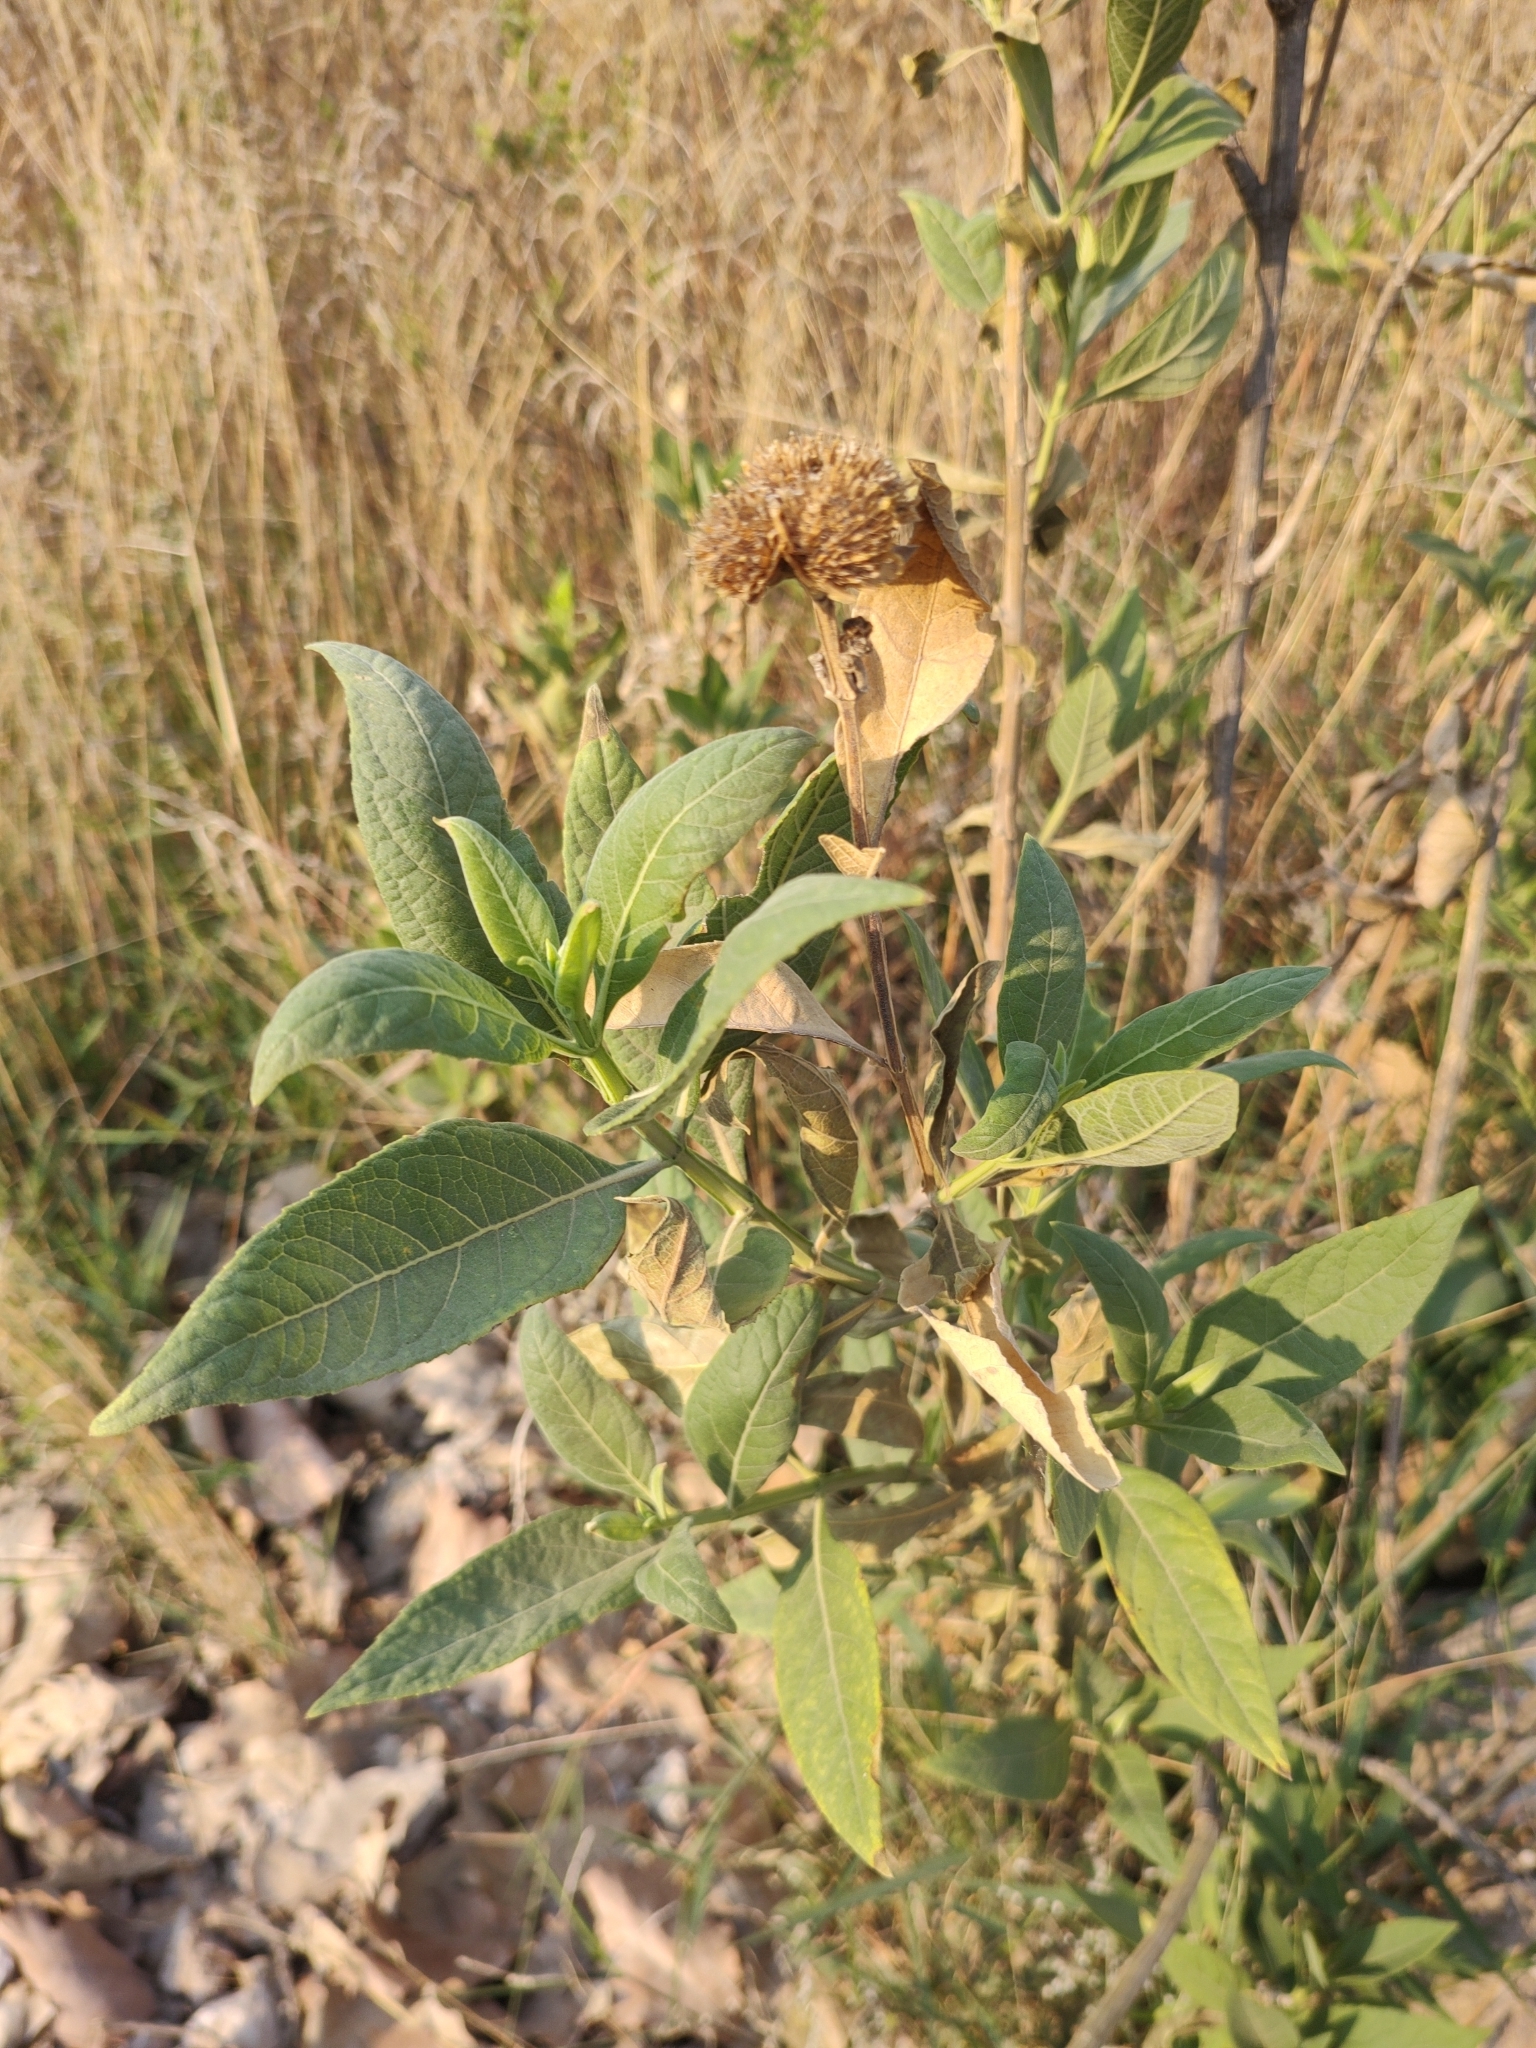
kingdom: Plantae
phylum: Tracheophyta
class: Magnoliopsida
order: Asterales
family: Asteraceae
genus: Verbesina
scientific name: Verbesina sphaerocephala
